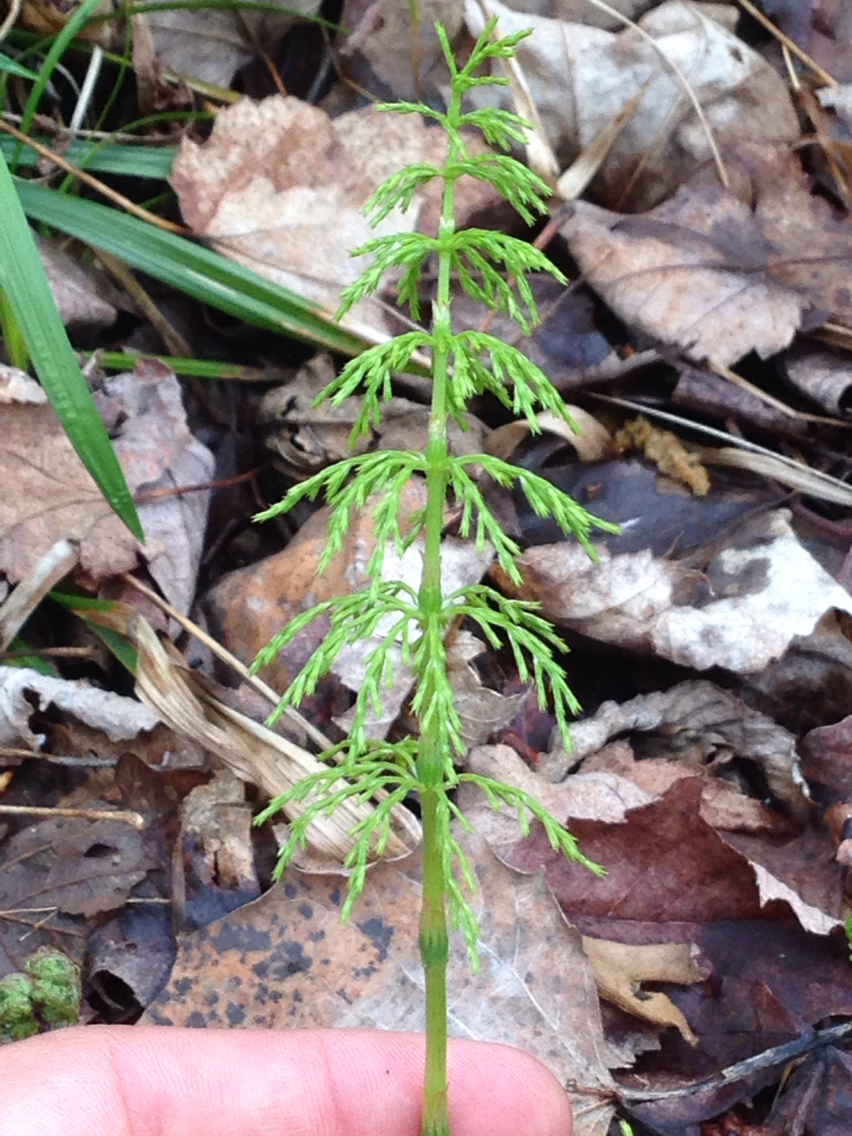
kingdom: Plantae
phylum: Tracheophyta
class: Polypodiopsida
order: Equisetales
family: Equisetaceae
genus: Equisetum
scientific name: Equisetum sylvaticum
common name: Wood horsetail
